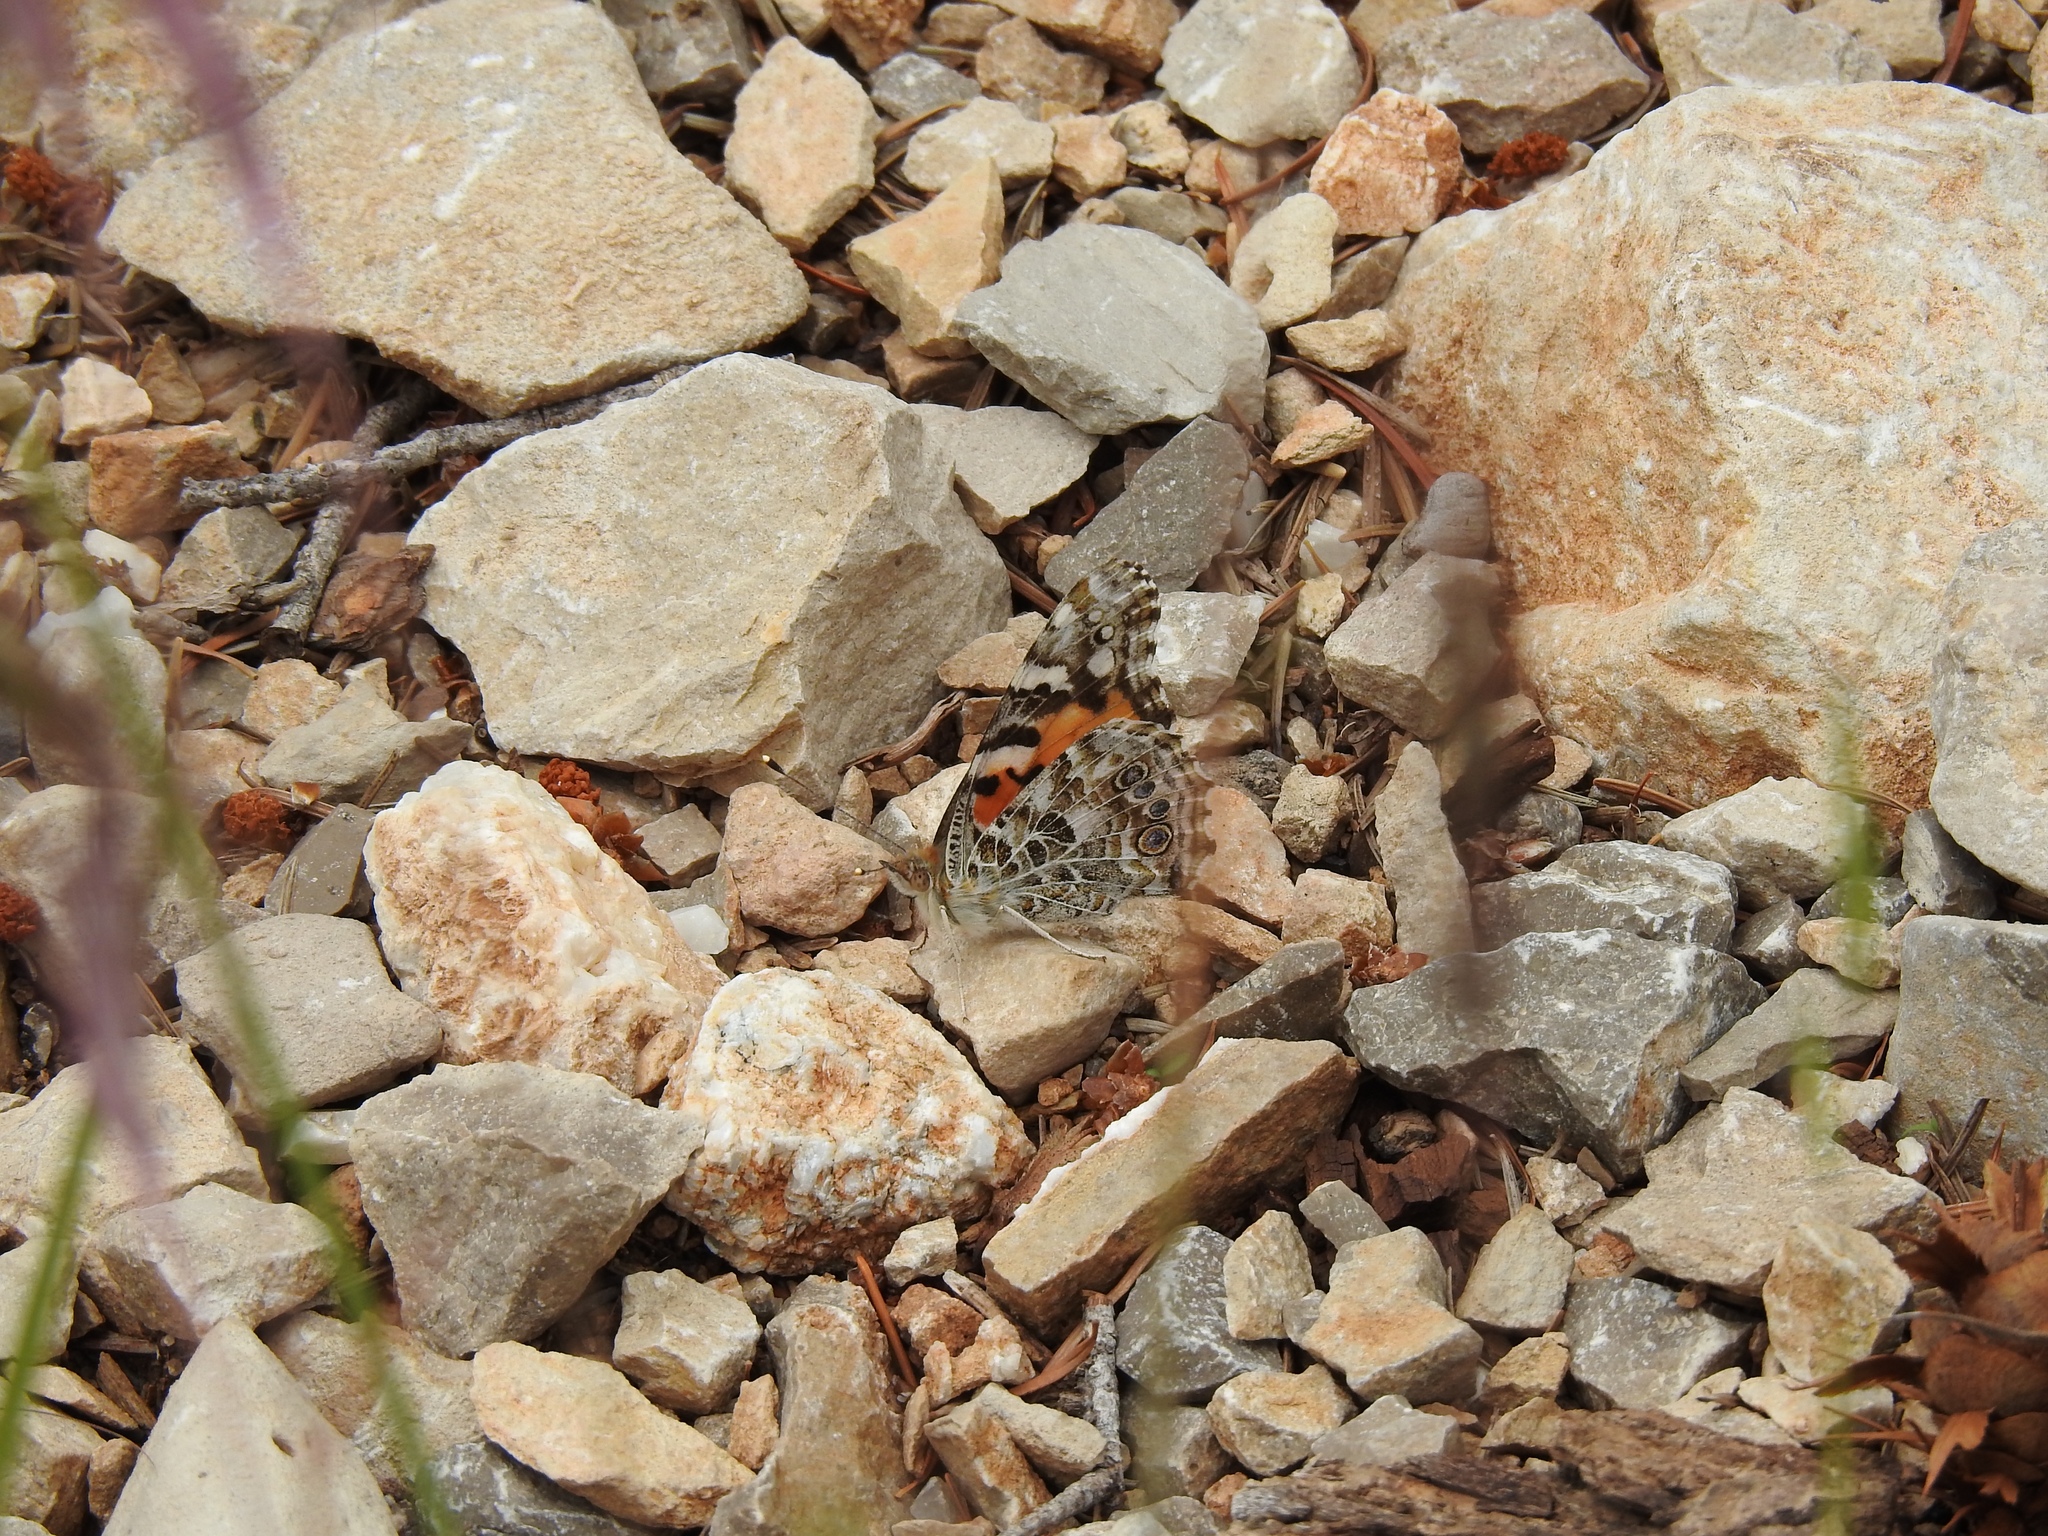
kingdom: Animalia
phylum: Arthropoda
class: Insecta
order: Lepidoptera
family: Nymphalidae
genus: Vanessa
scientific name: Vanessa cardui
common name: Painted lady
